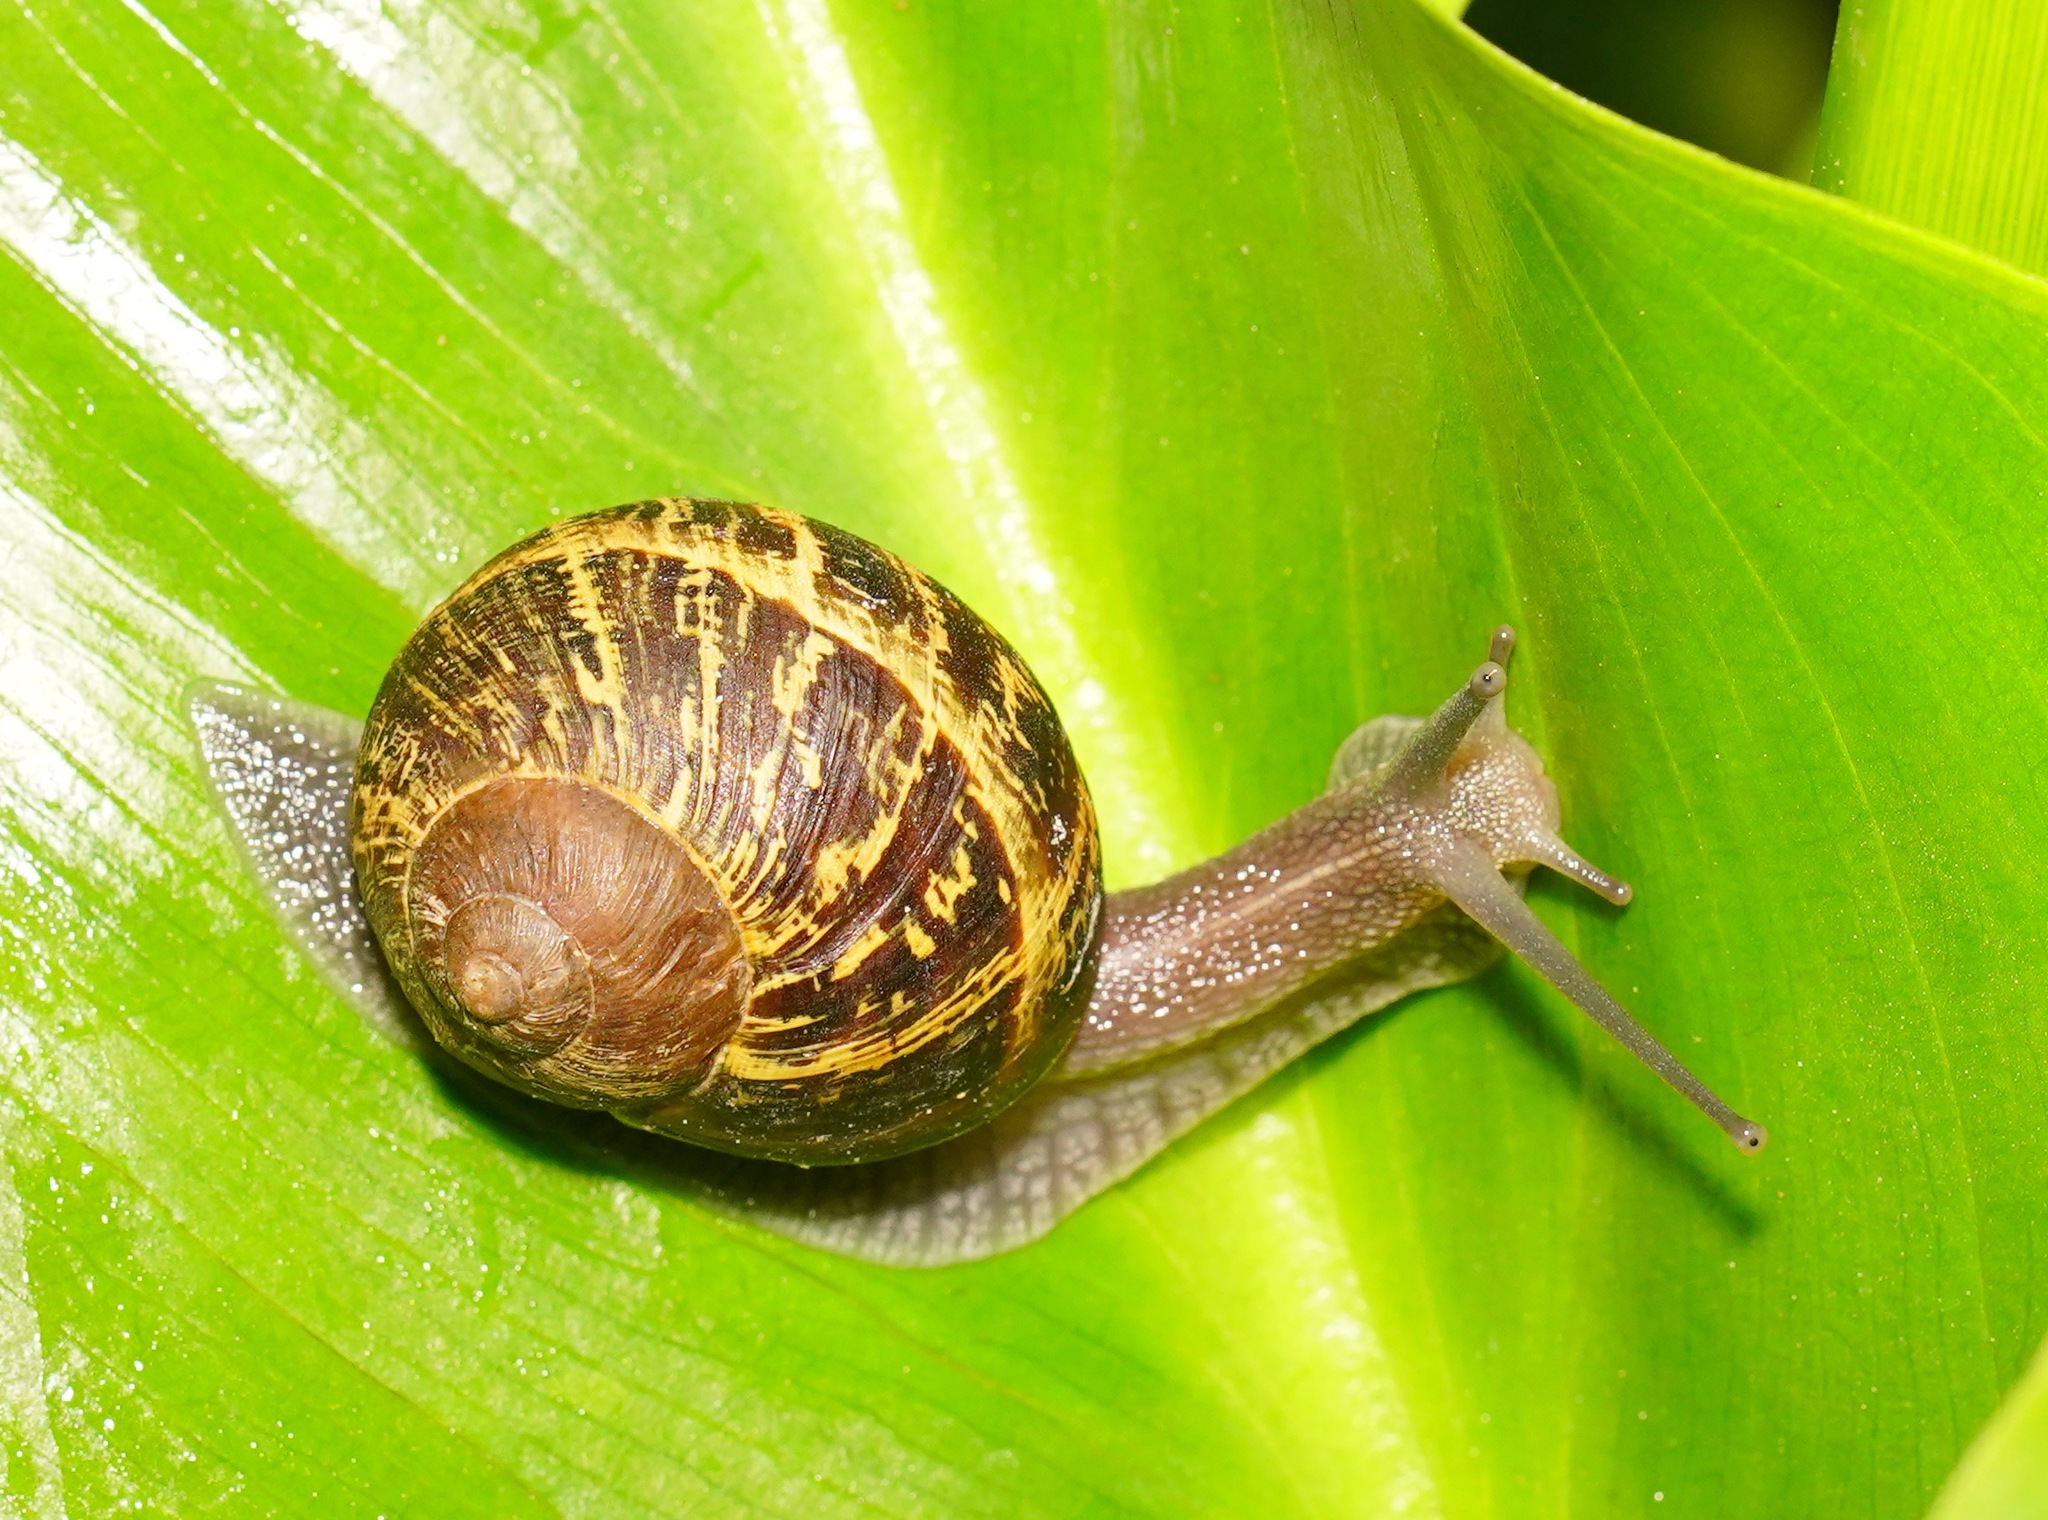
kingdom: Animalia
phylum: Mollusca
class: Gastropoda
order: Stylommatophora
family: Helicidae
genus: Cornu
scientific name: Cornu aspersum
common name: Brown garden snail
